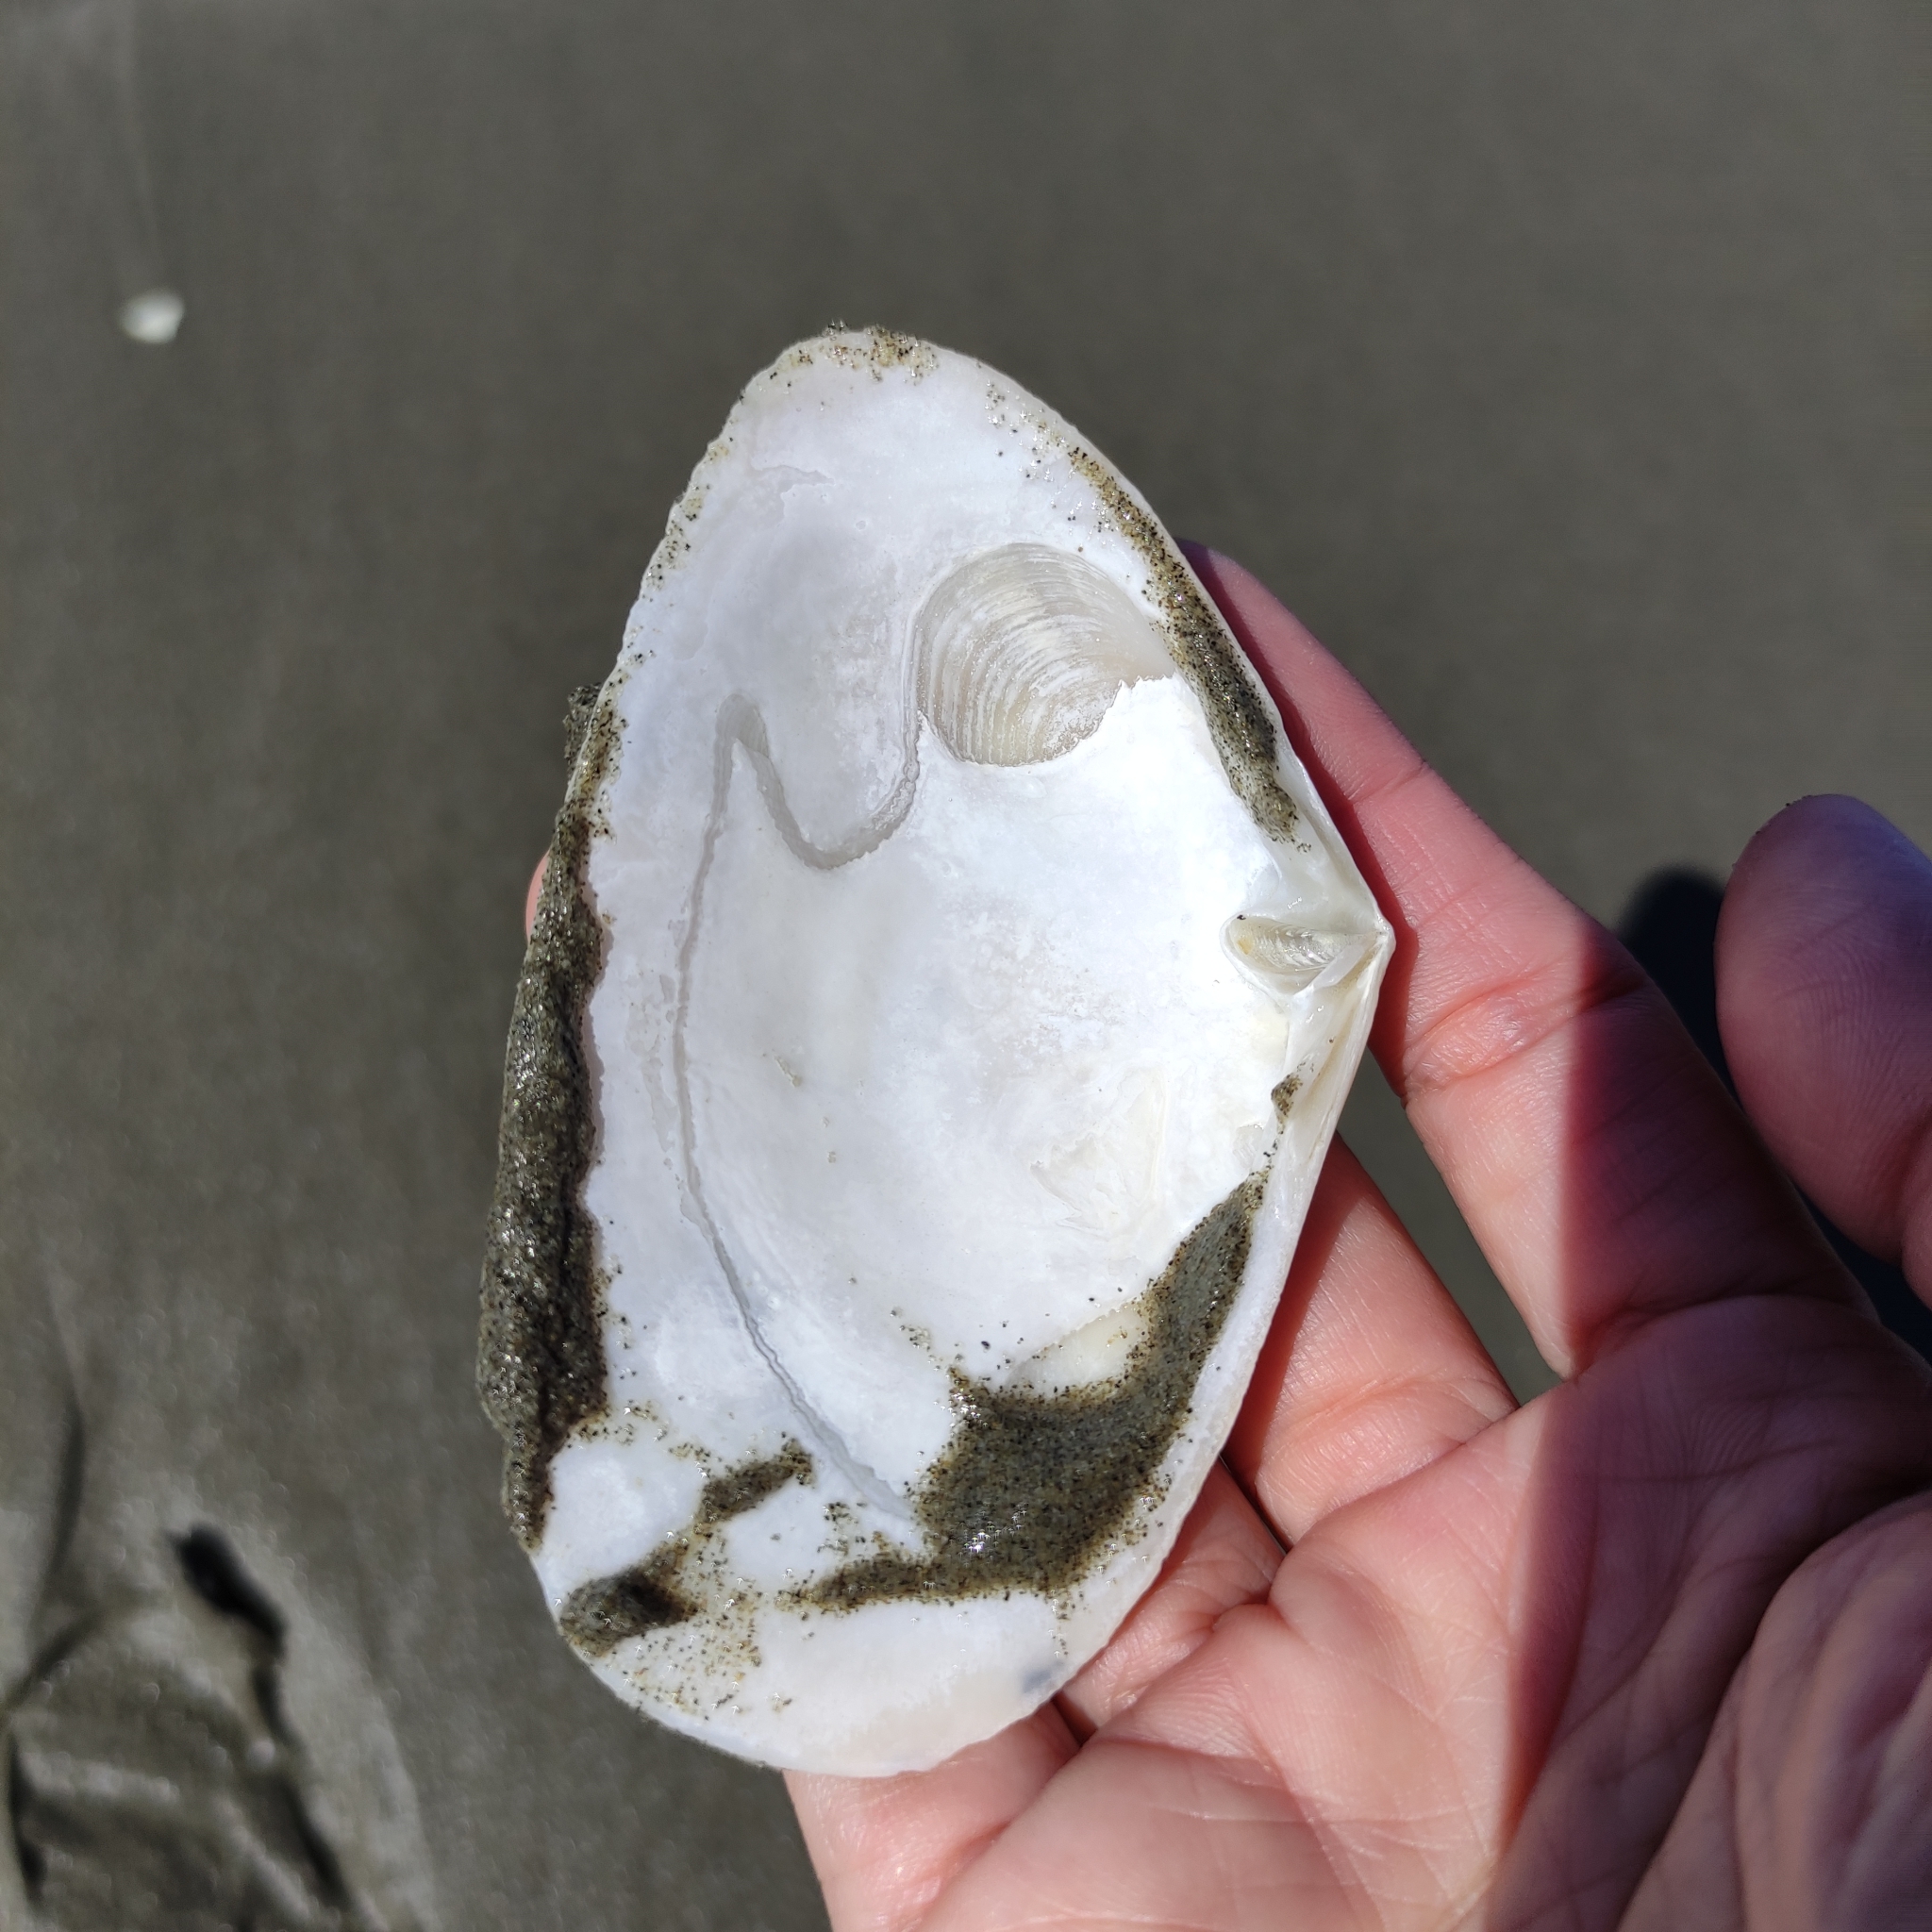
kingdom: Animalia
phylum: Mollusca
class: Bivalvia
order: Venerida
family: Mesodesmatidae
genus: Paphies
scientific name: Paphies donacina
